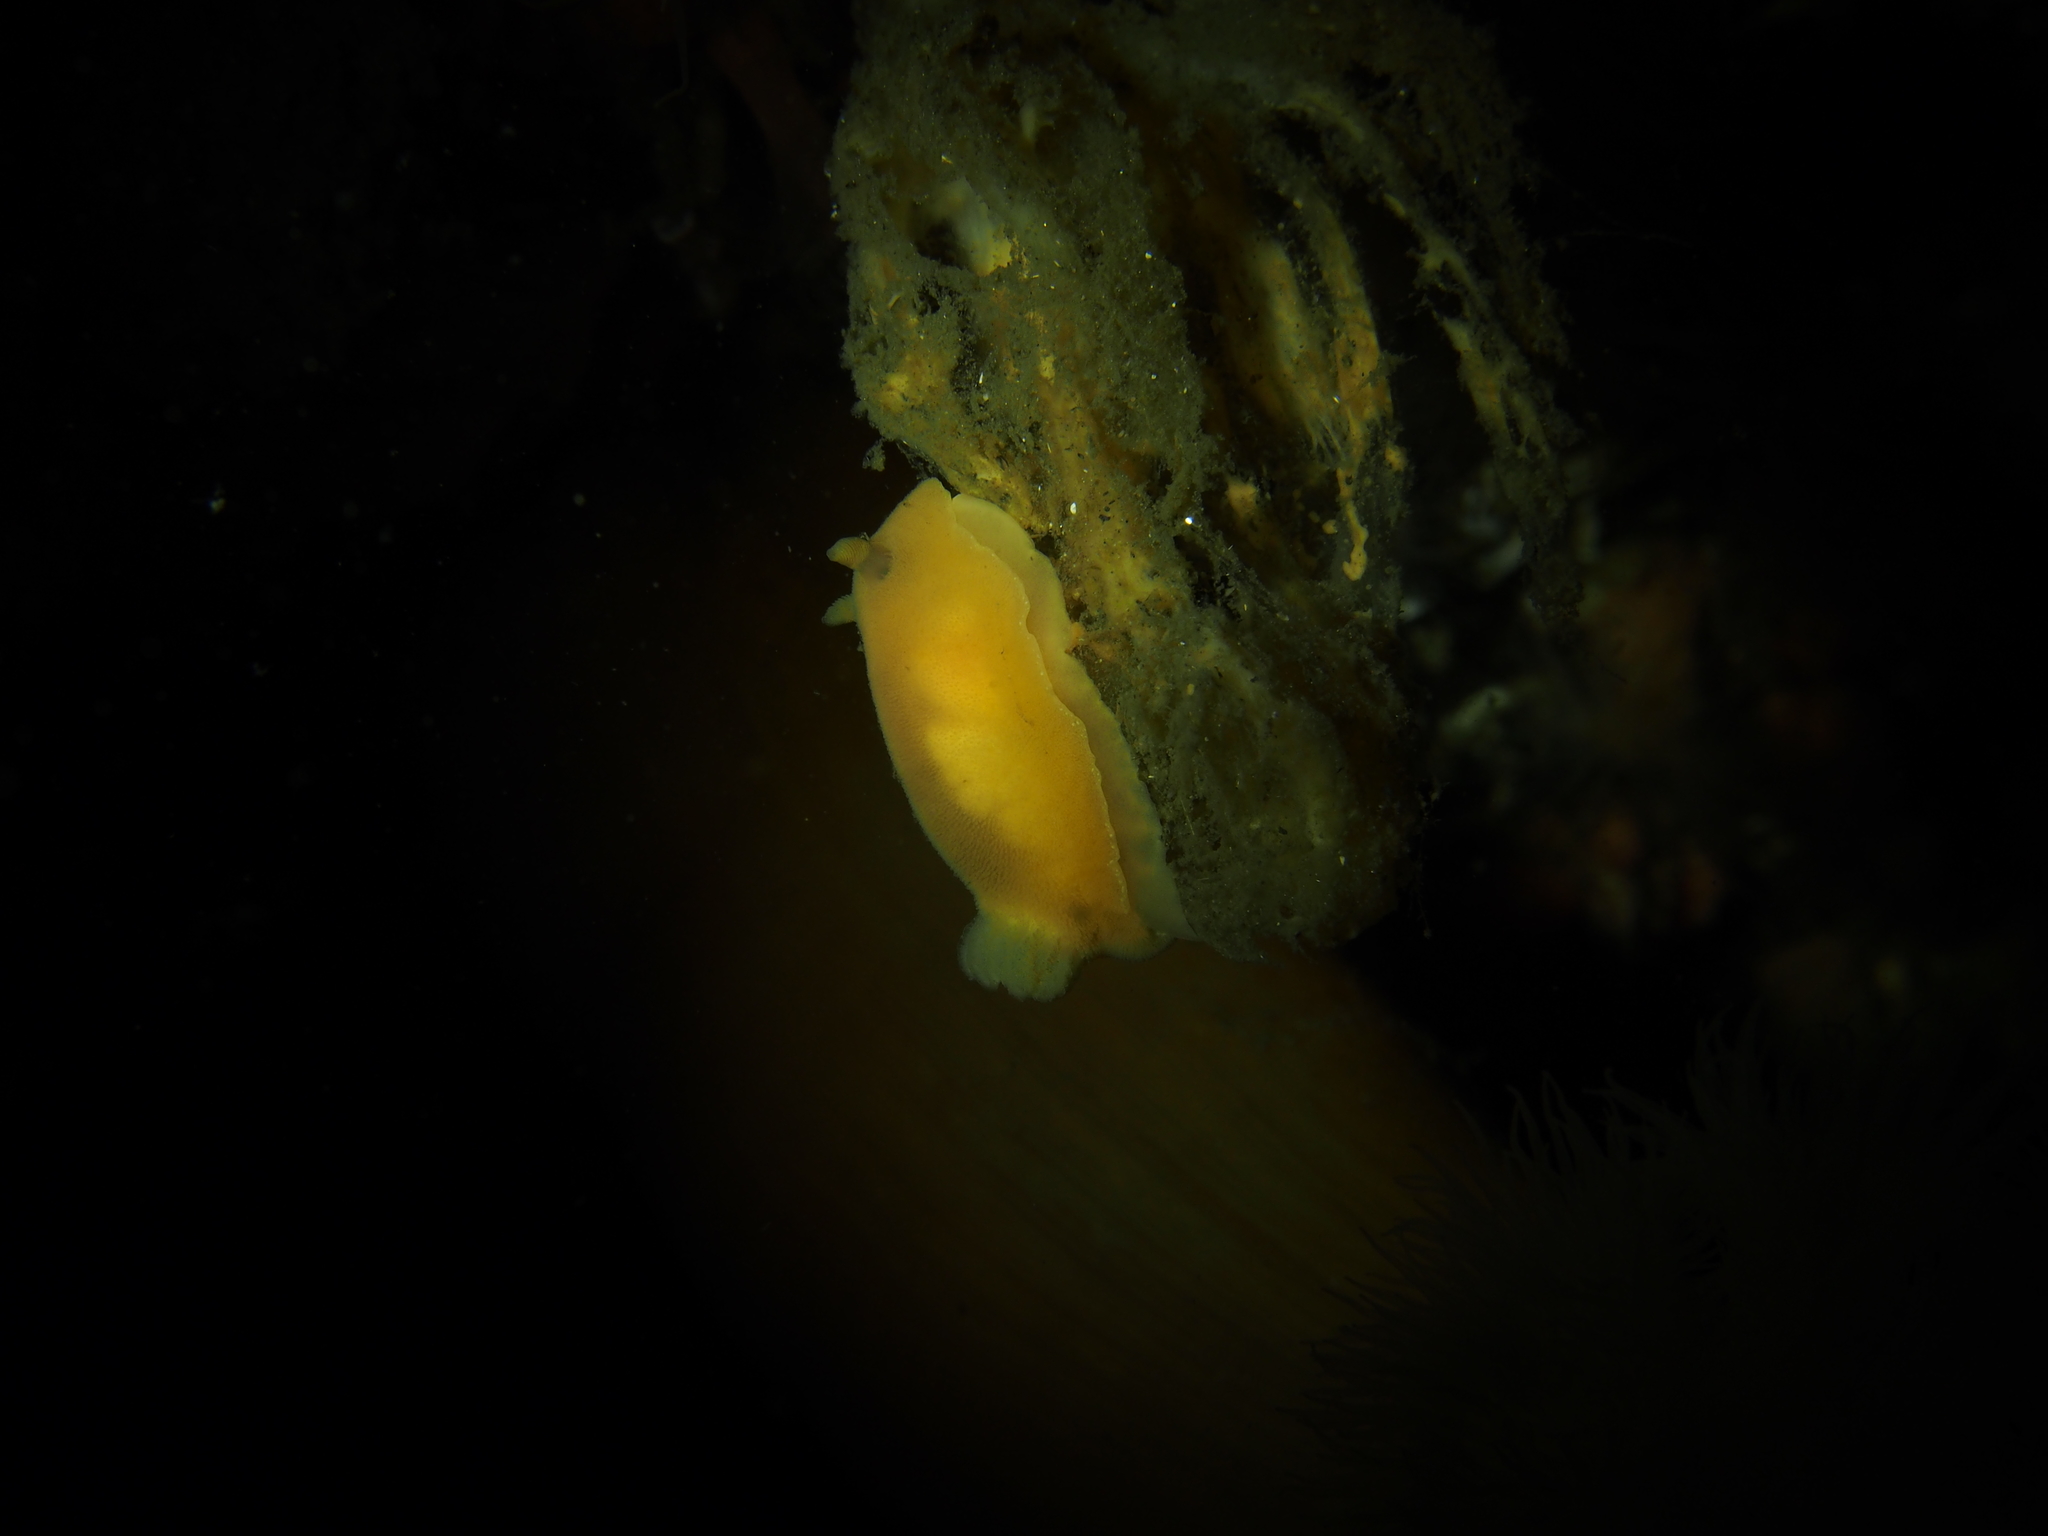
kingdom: Animalia
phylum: Mollusca
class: Gastropoda
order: Nudibranchia
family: Discodorididae
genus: Jorunna
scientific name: Jorunna tomentosa
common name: Grey sea slug
